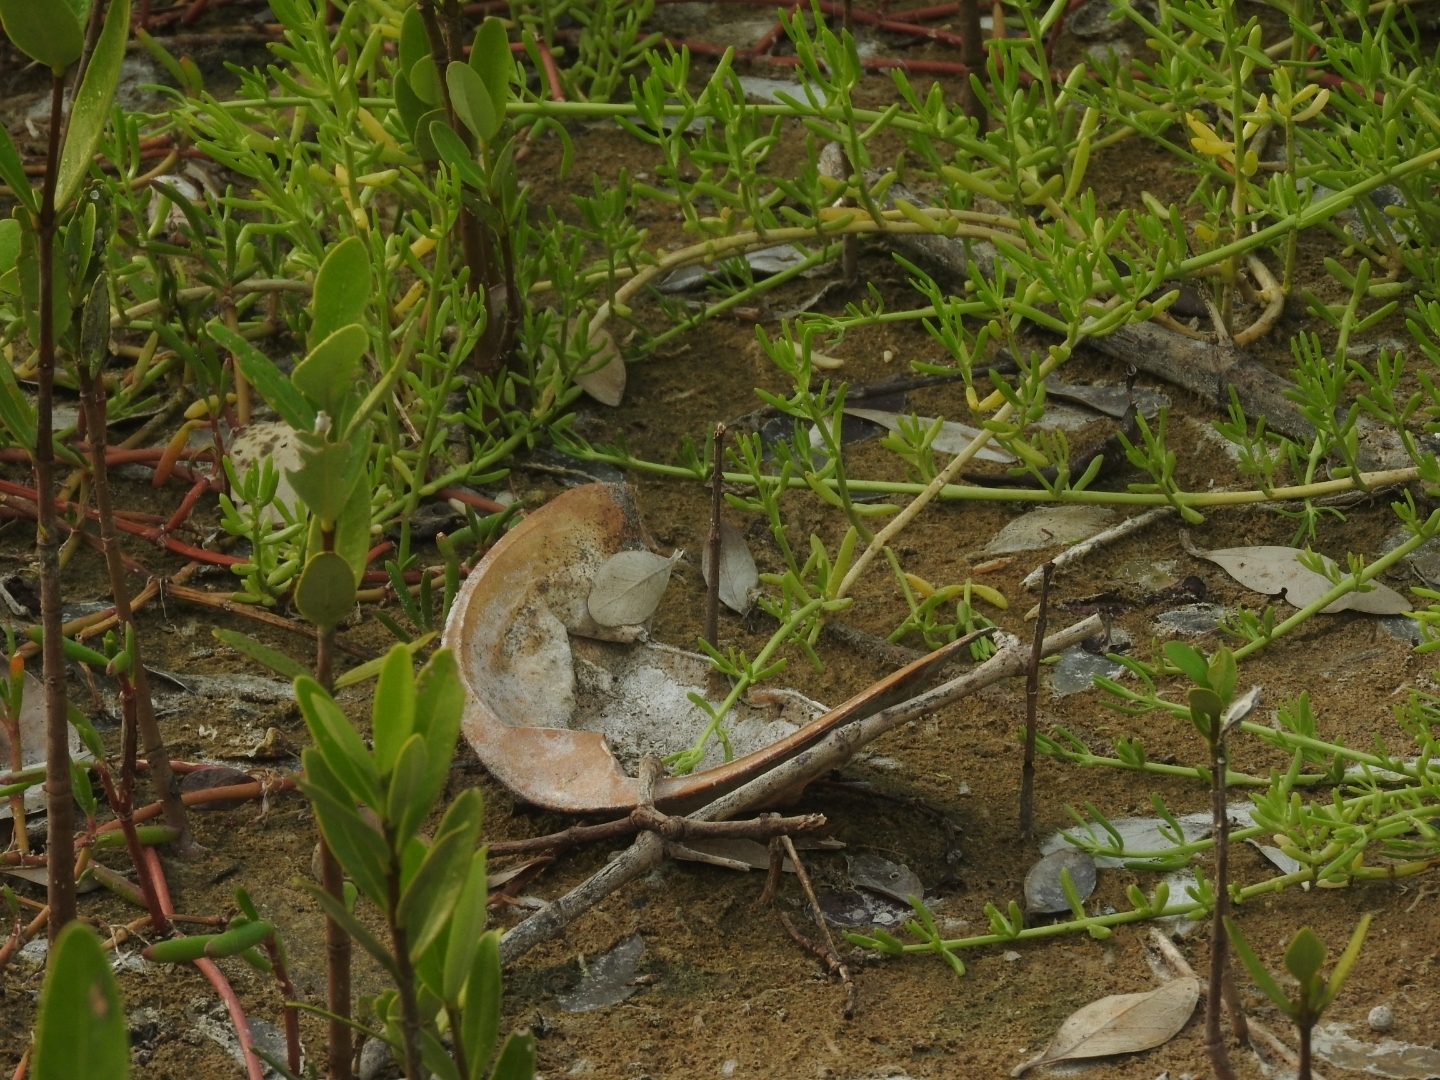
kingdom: Animalia
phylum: Arthropoda
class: Merostomata
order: Xiphosurida
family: Limulidae
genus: Limulus
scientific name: Limulus polyphemus
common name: Horseshoe crab
